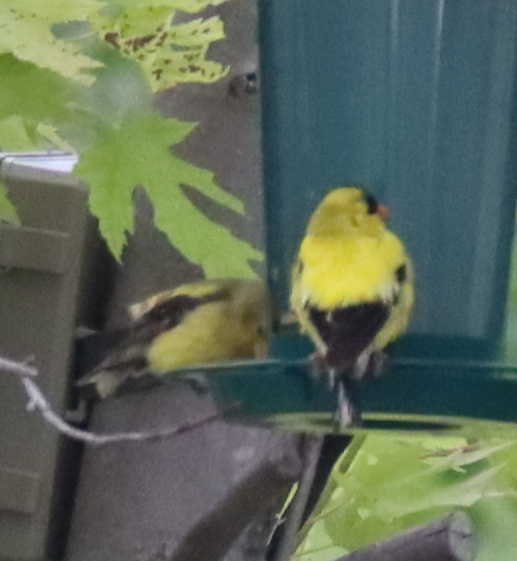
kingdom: Animalia
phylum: Chordata
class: Aves
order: Passeriformes
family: Fringillidae
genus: Spinus
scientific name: Spinus tristis
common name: American goldfinch
